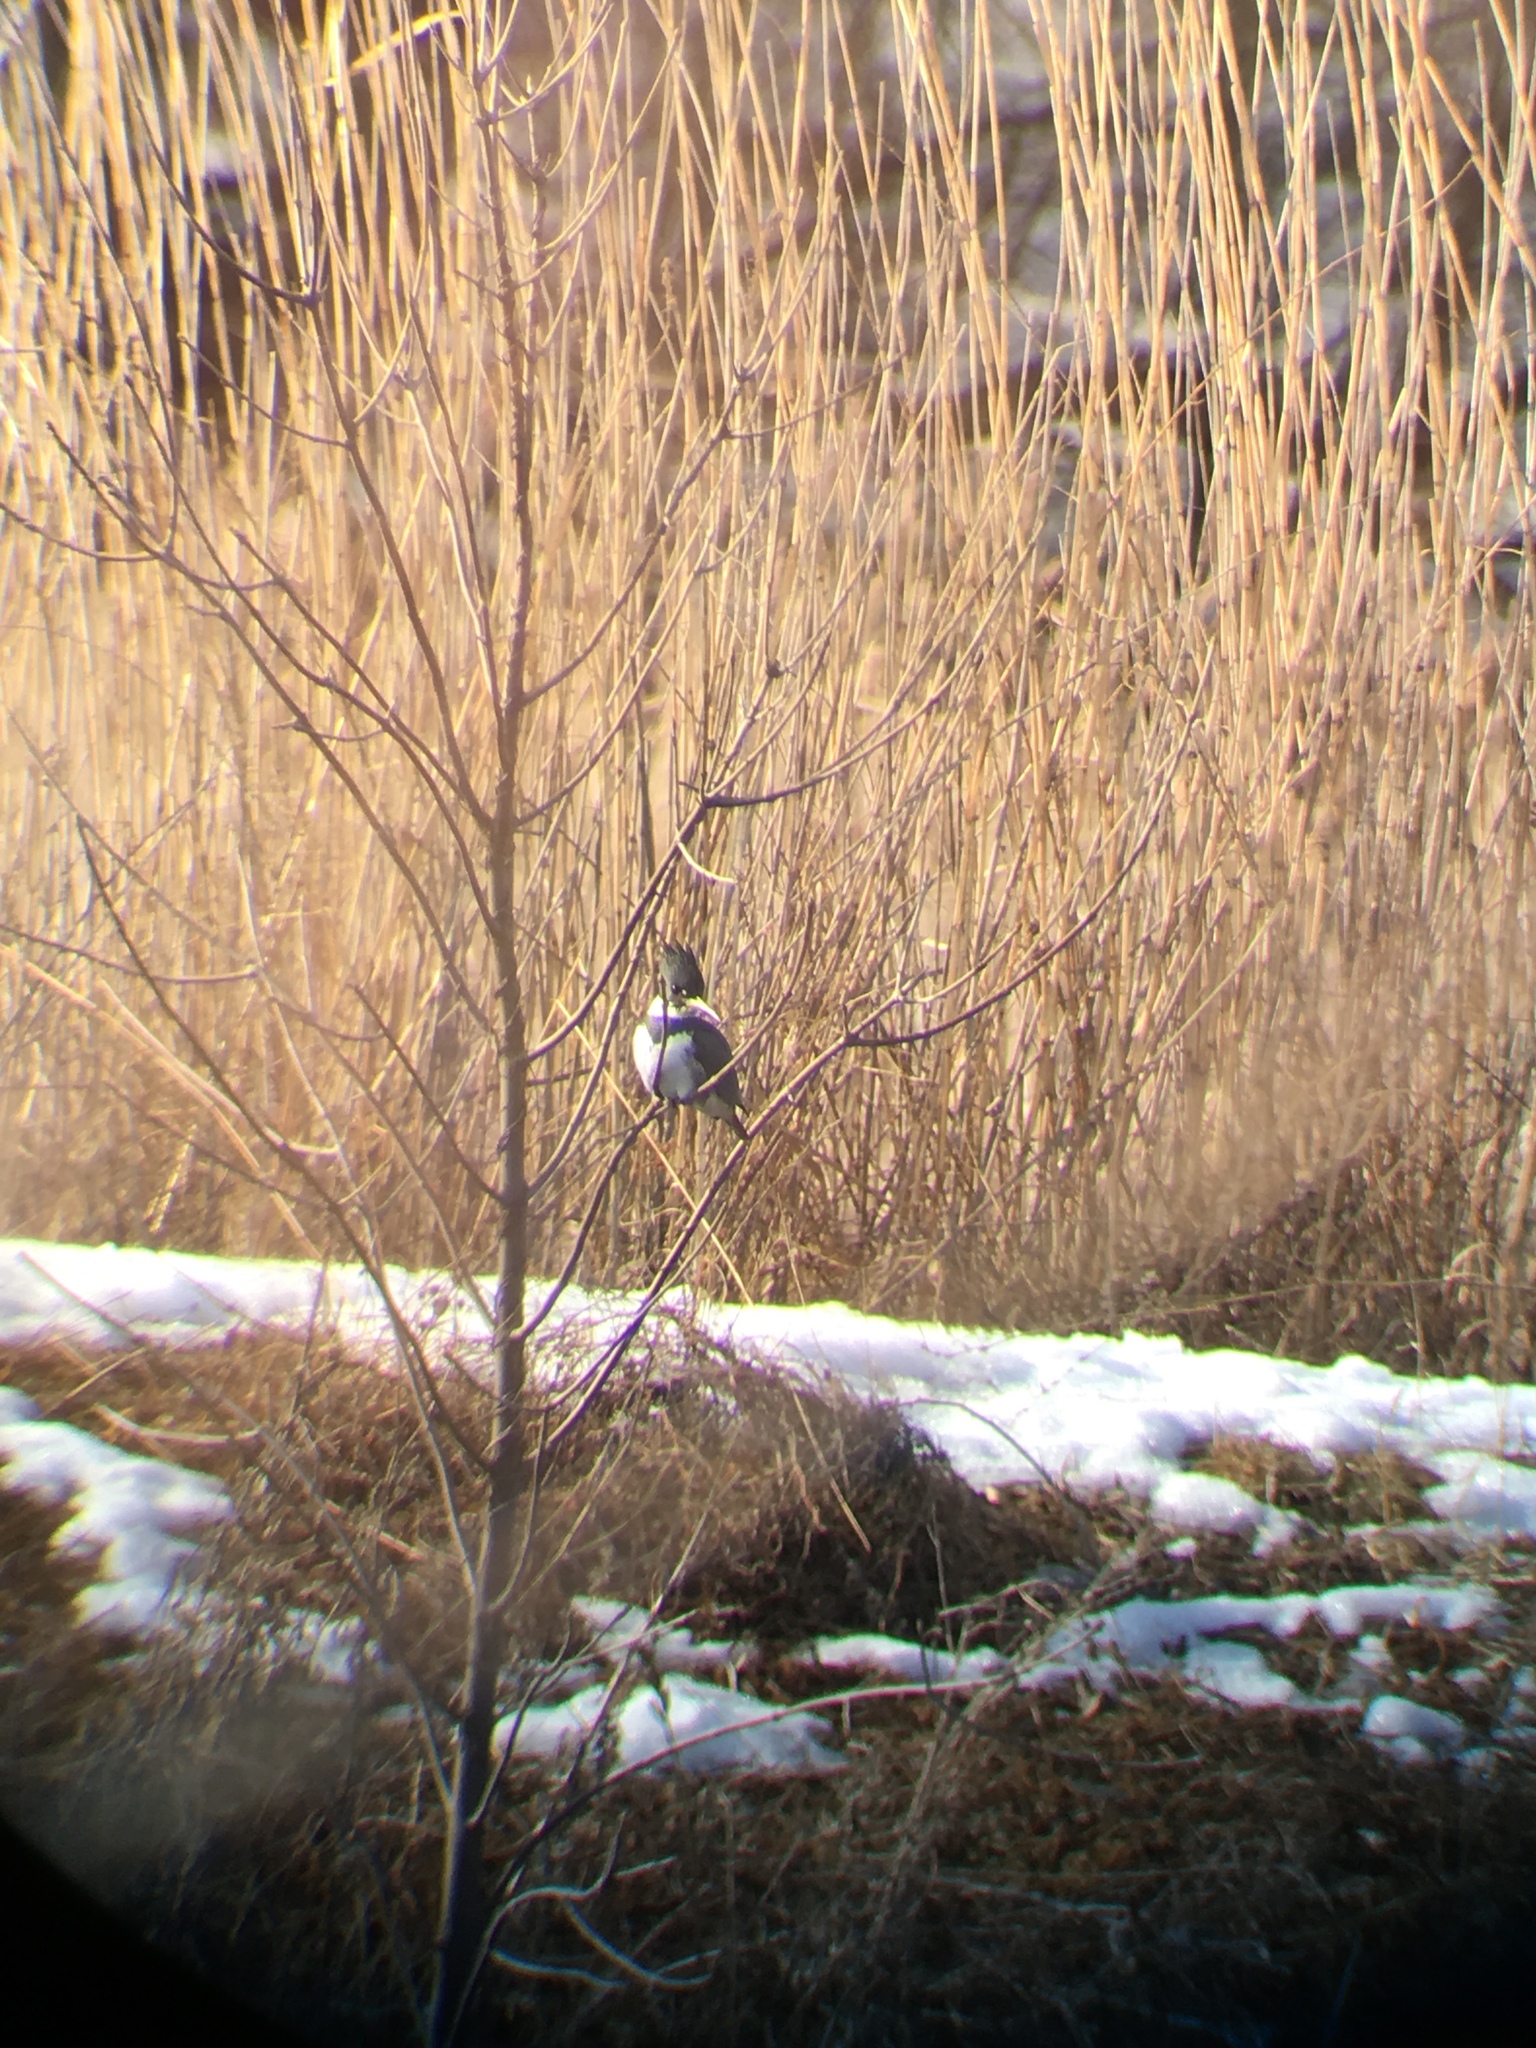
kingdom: Animalia
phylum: Chordata
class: Aves
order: Coraciiformes
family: Alcedinidae
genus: Megaceryle
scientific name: Megaceryle alcyon
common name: Belted kingfisher
